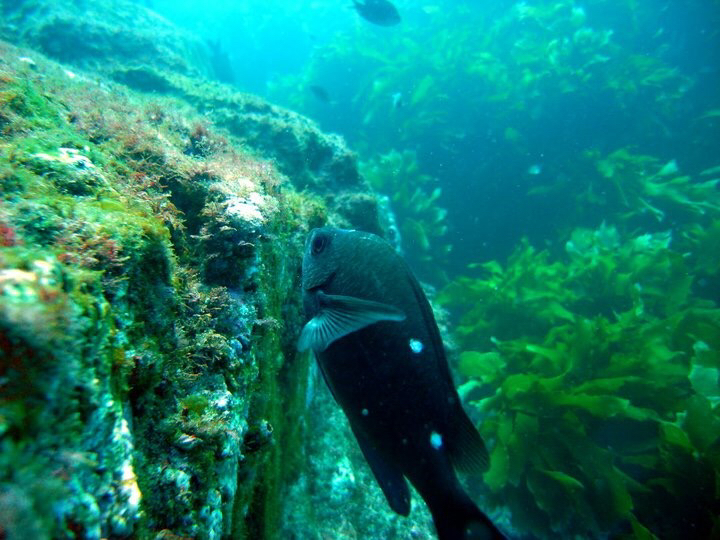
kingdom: Animalia
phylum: Chordata
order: Perciformes
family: Pomacentridae
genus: Chromis
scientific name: Chromis dispilus
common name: Demoiselle
